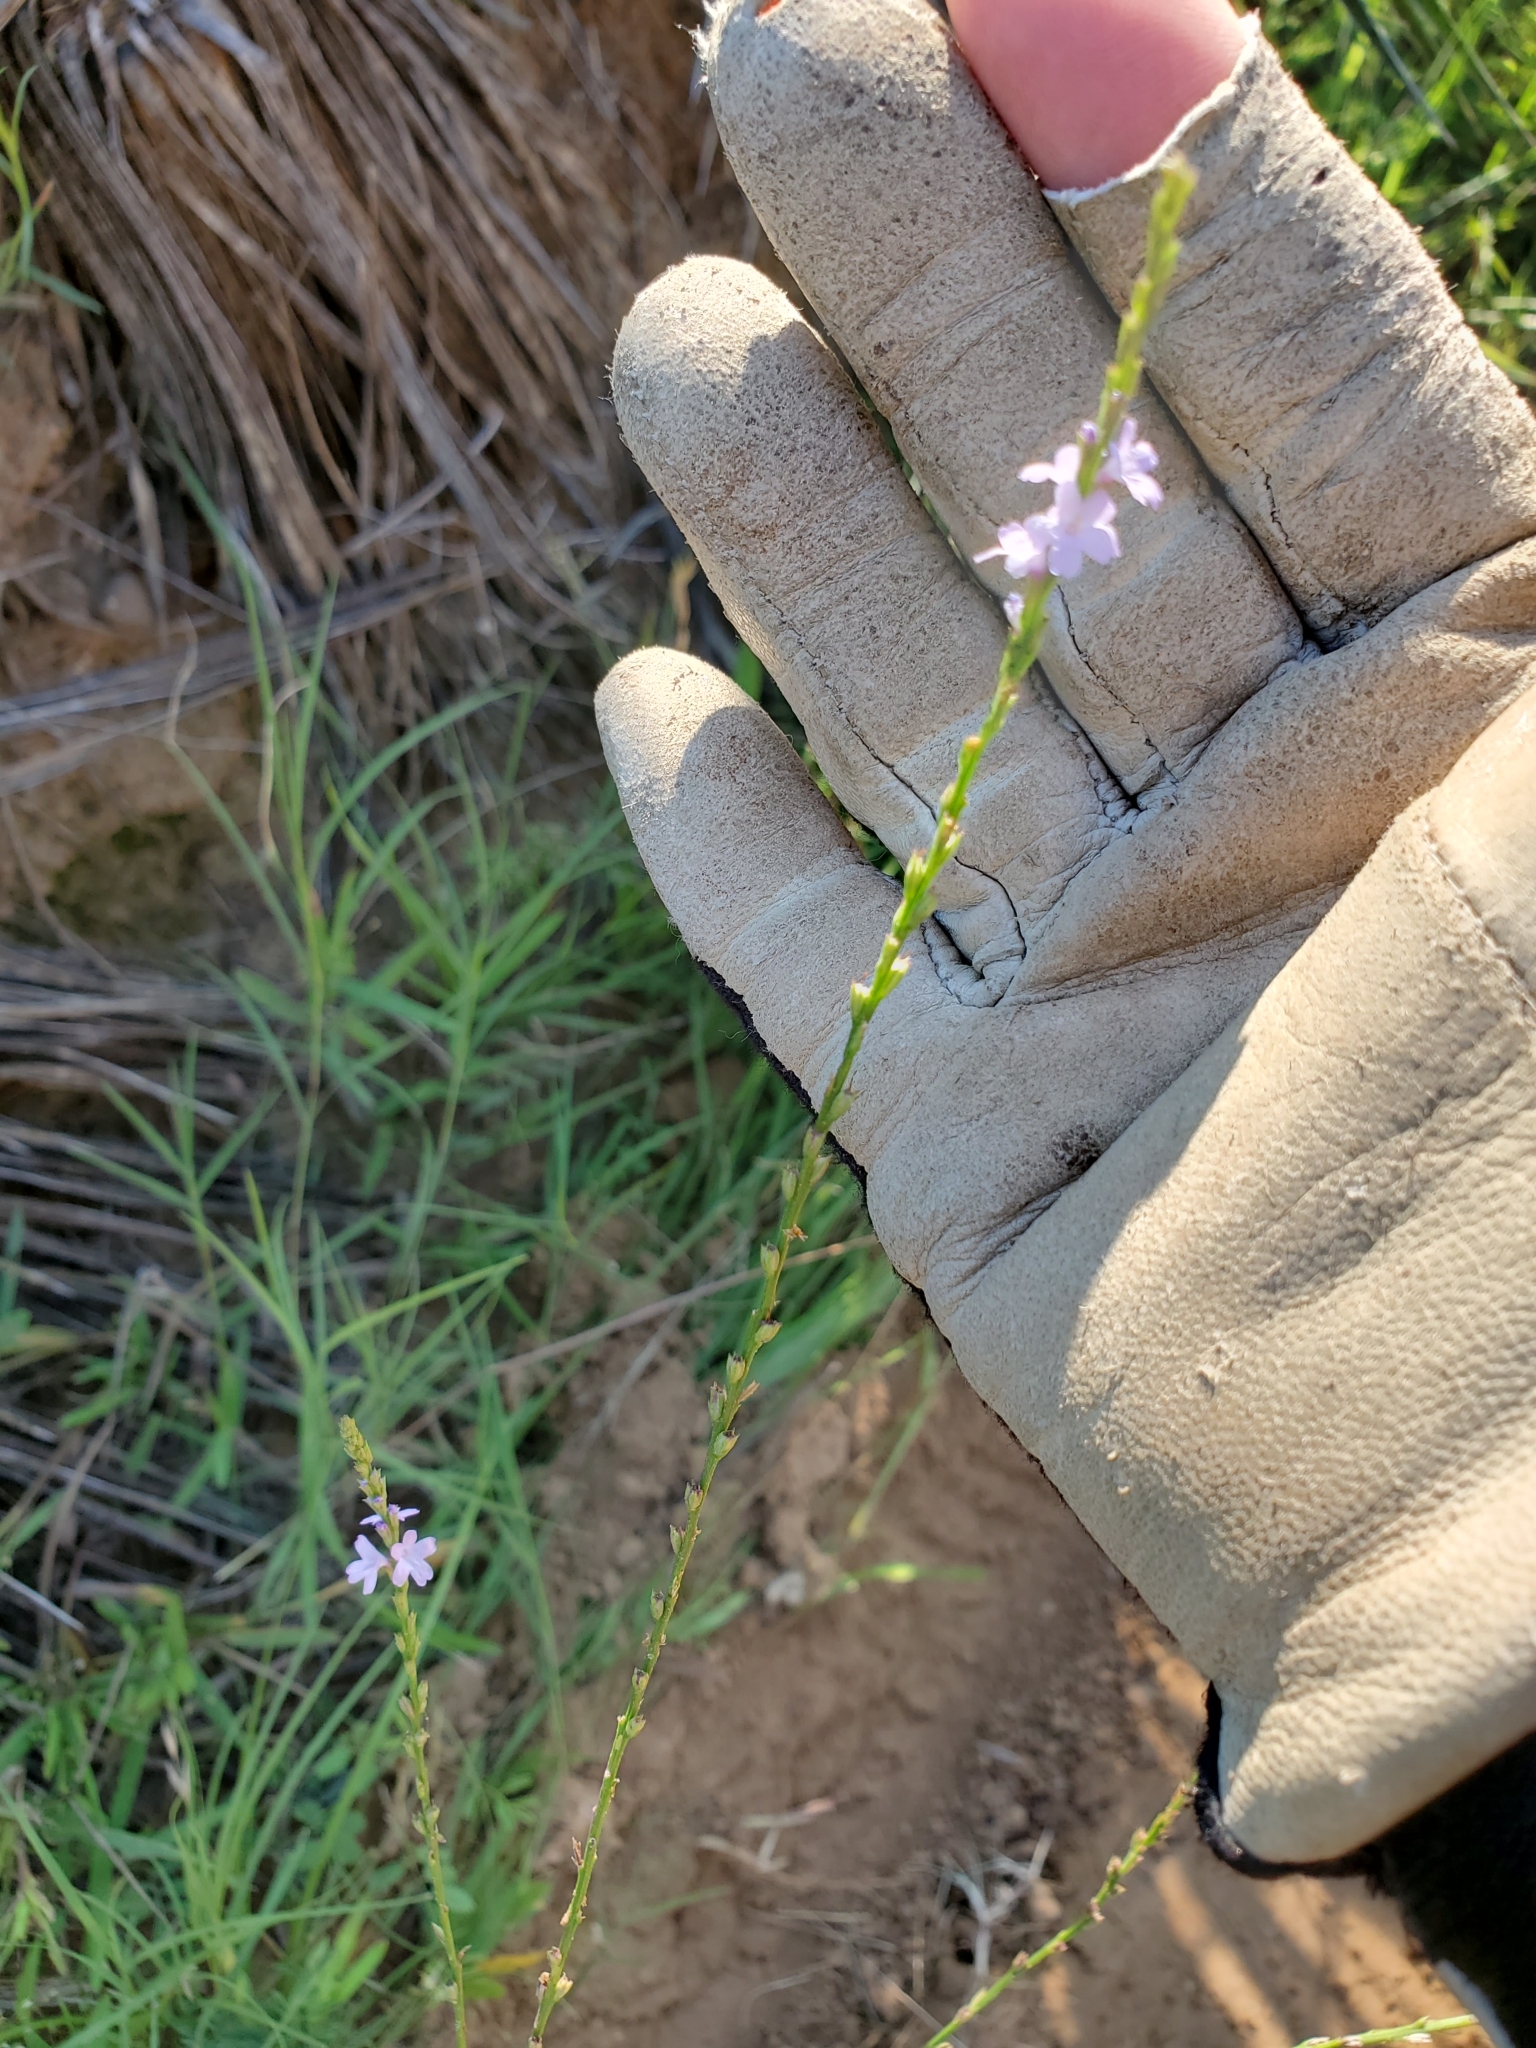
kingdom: Plantae
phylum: Tracheophyta
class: Magnoliopsida
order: Lamiales
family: Verbenaceae
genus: Verbena
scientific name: Verbena halei
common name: Texas vervain
